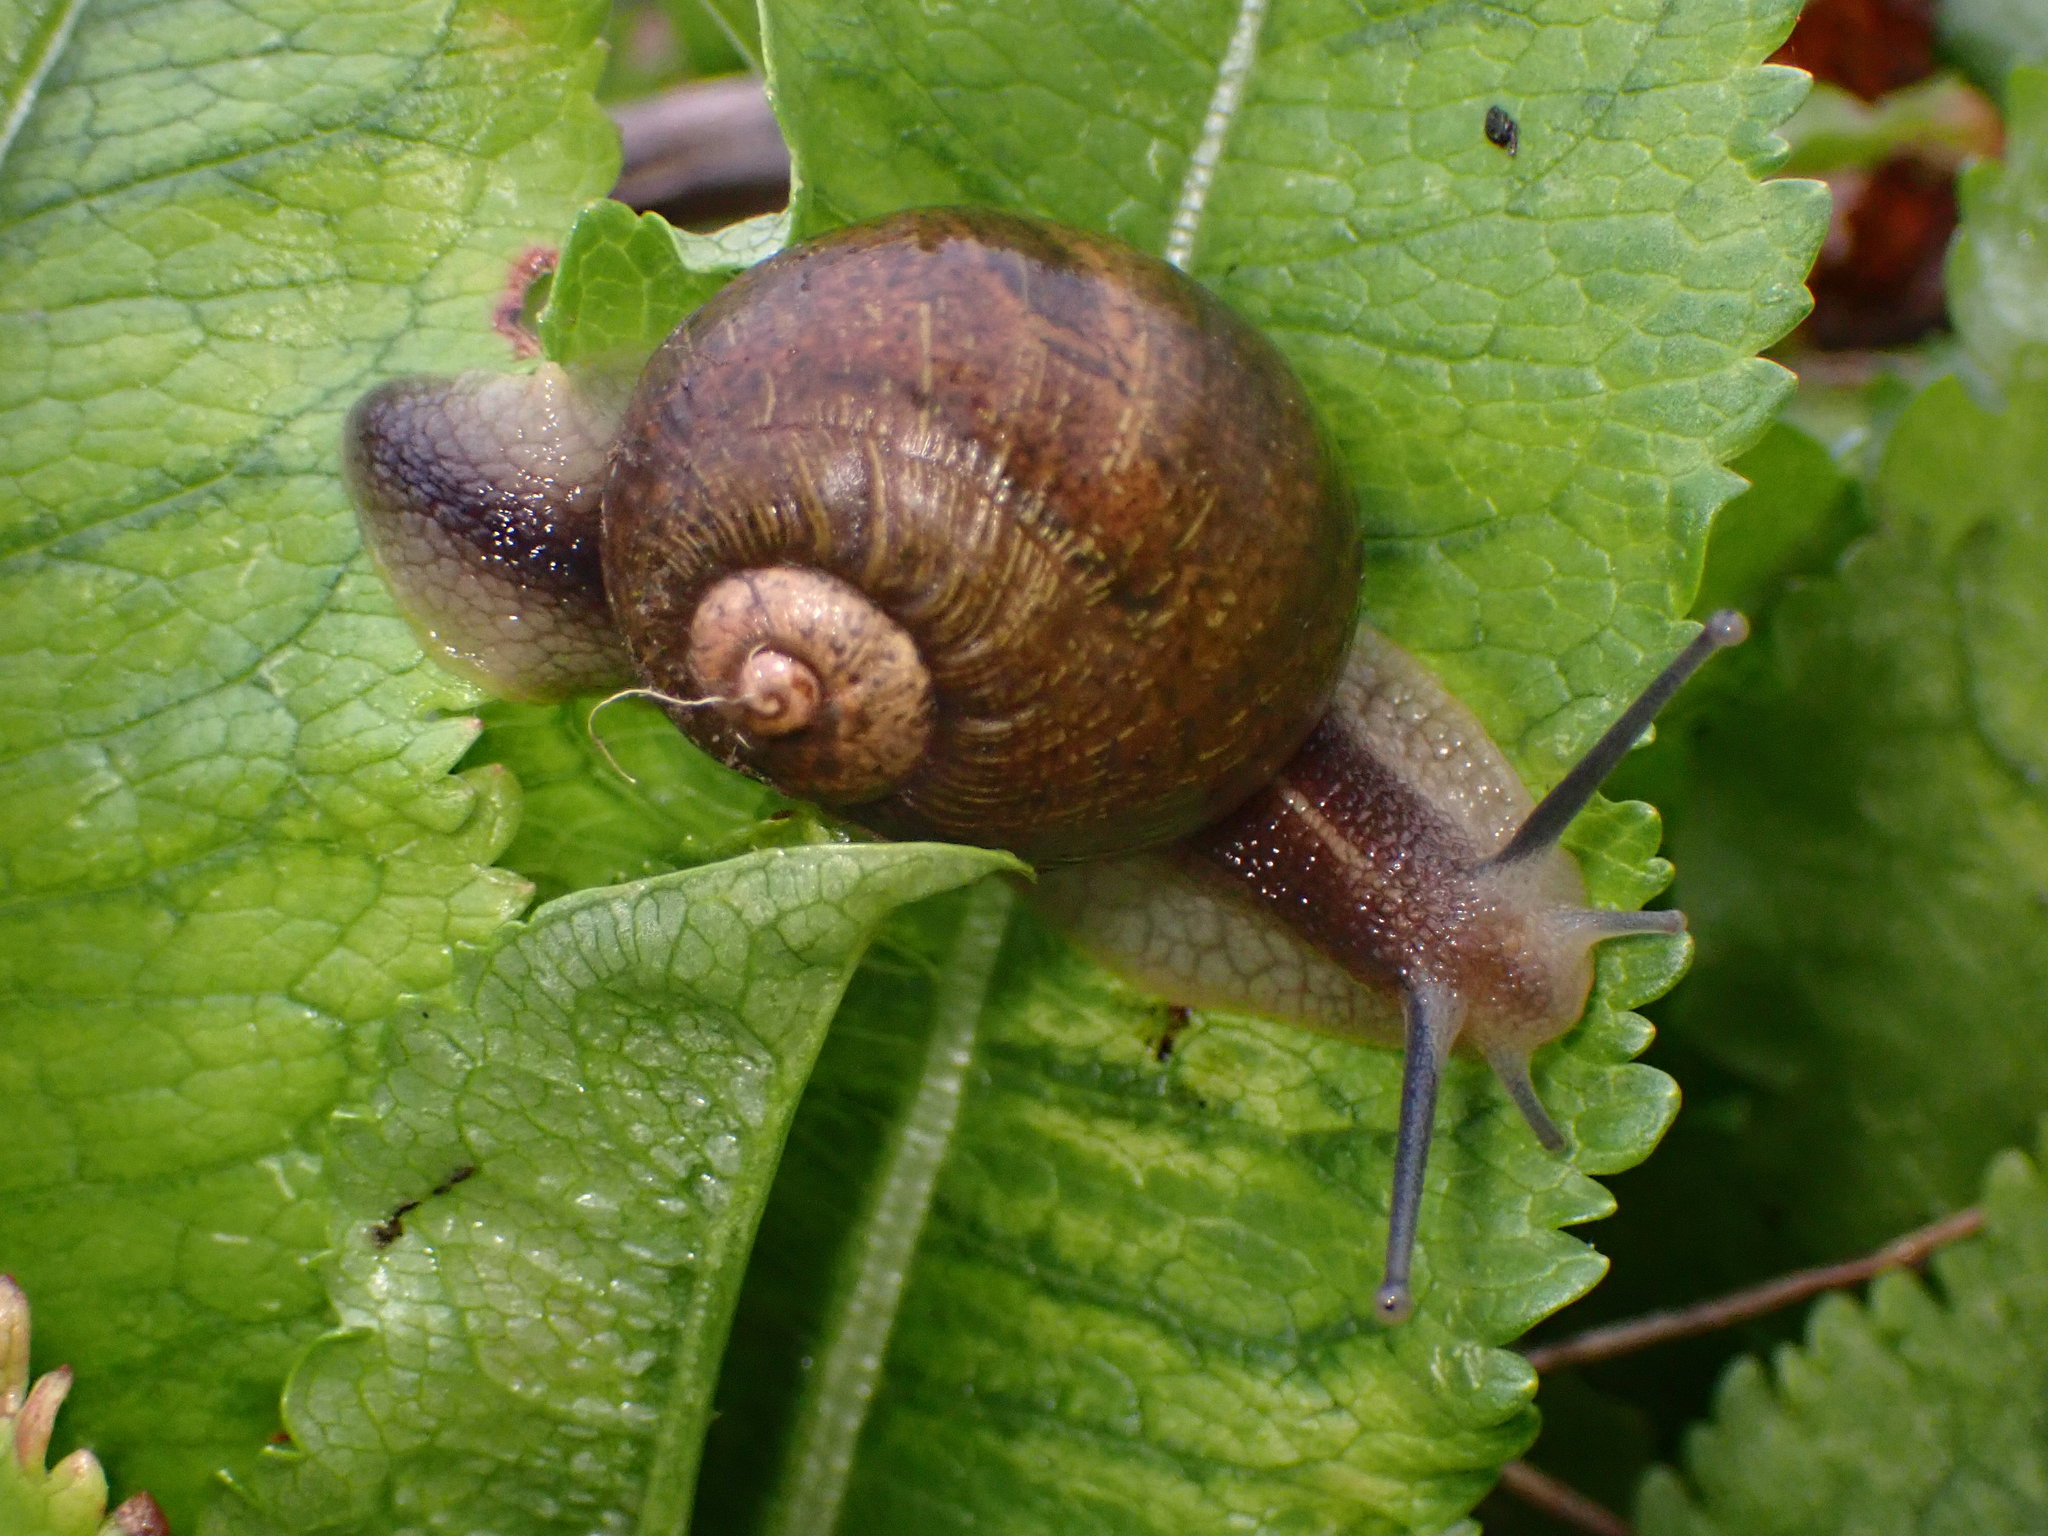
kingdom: Animalia
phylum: Mollusca
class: Gastropoda
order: Stylommatophora
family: Helicidae
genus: Cantareus
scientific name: Cantareus apertus
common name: Green gardensnail
